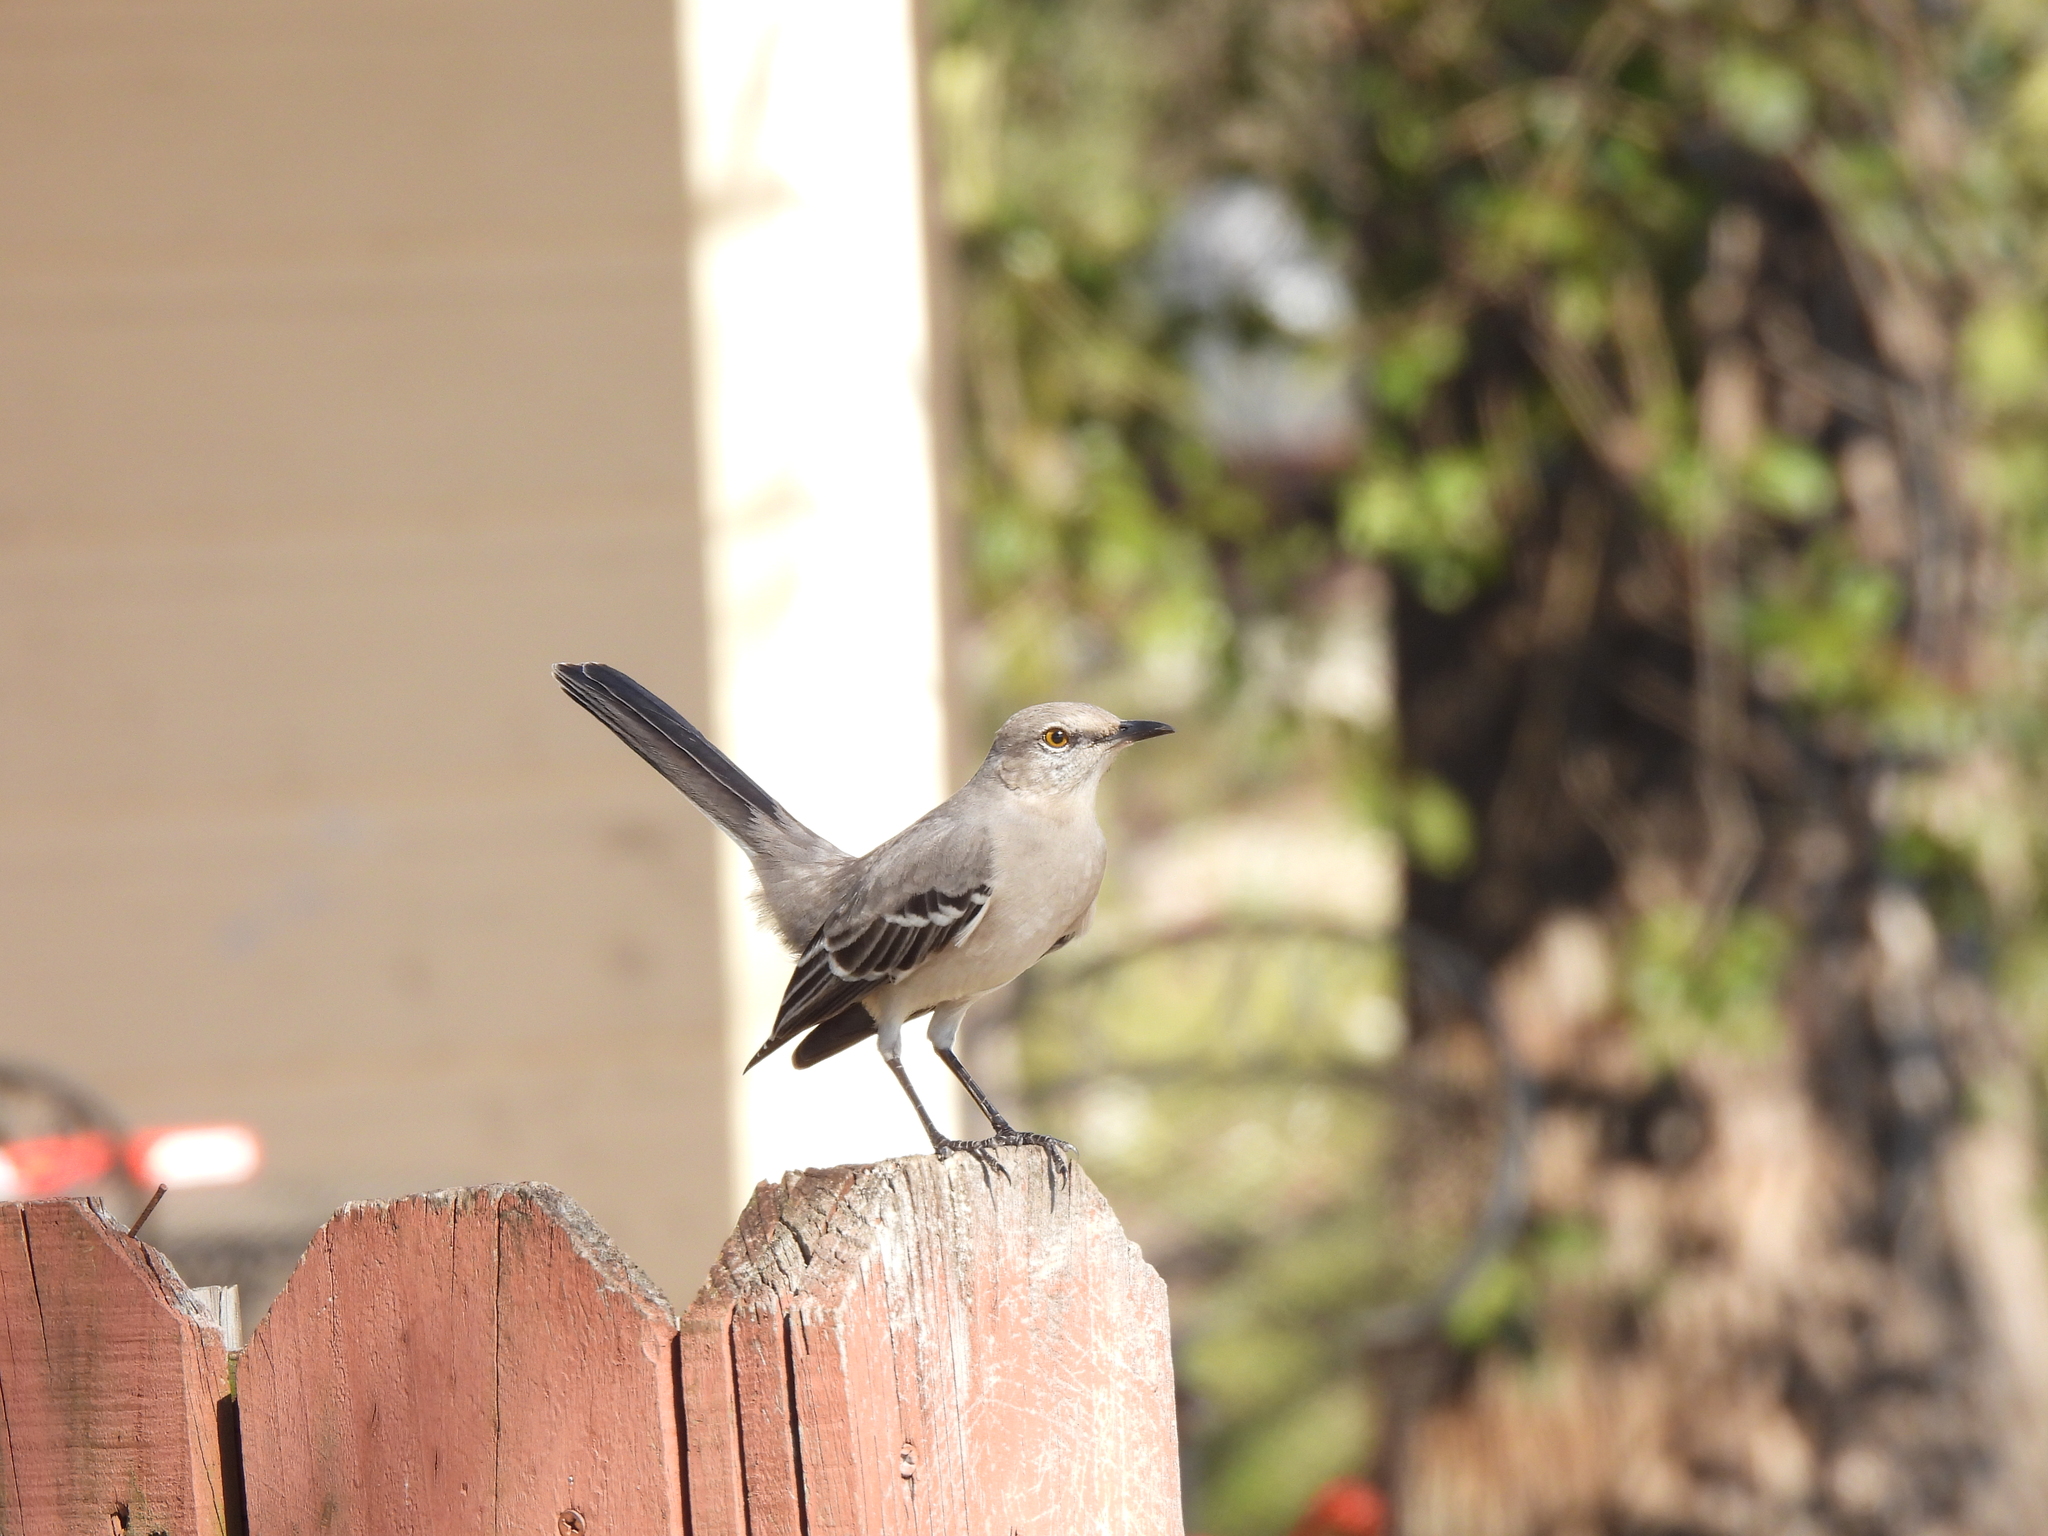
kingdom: Animalia
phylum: Chordata
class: Aves
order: Passeriformes
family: Mimidae
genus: Mimus
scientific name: Mimus polyglottos
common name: Northern mockingbird
